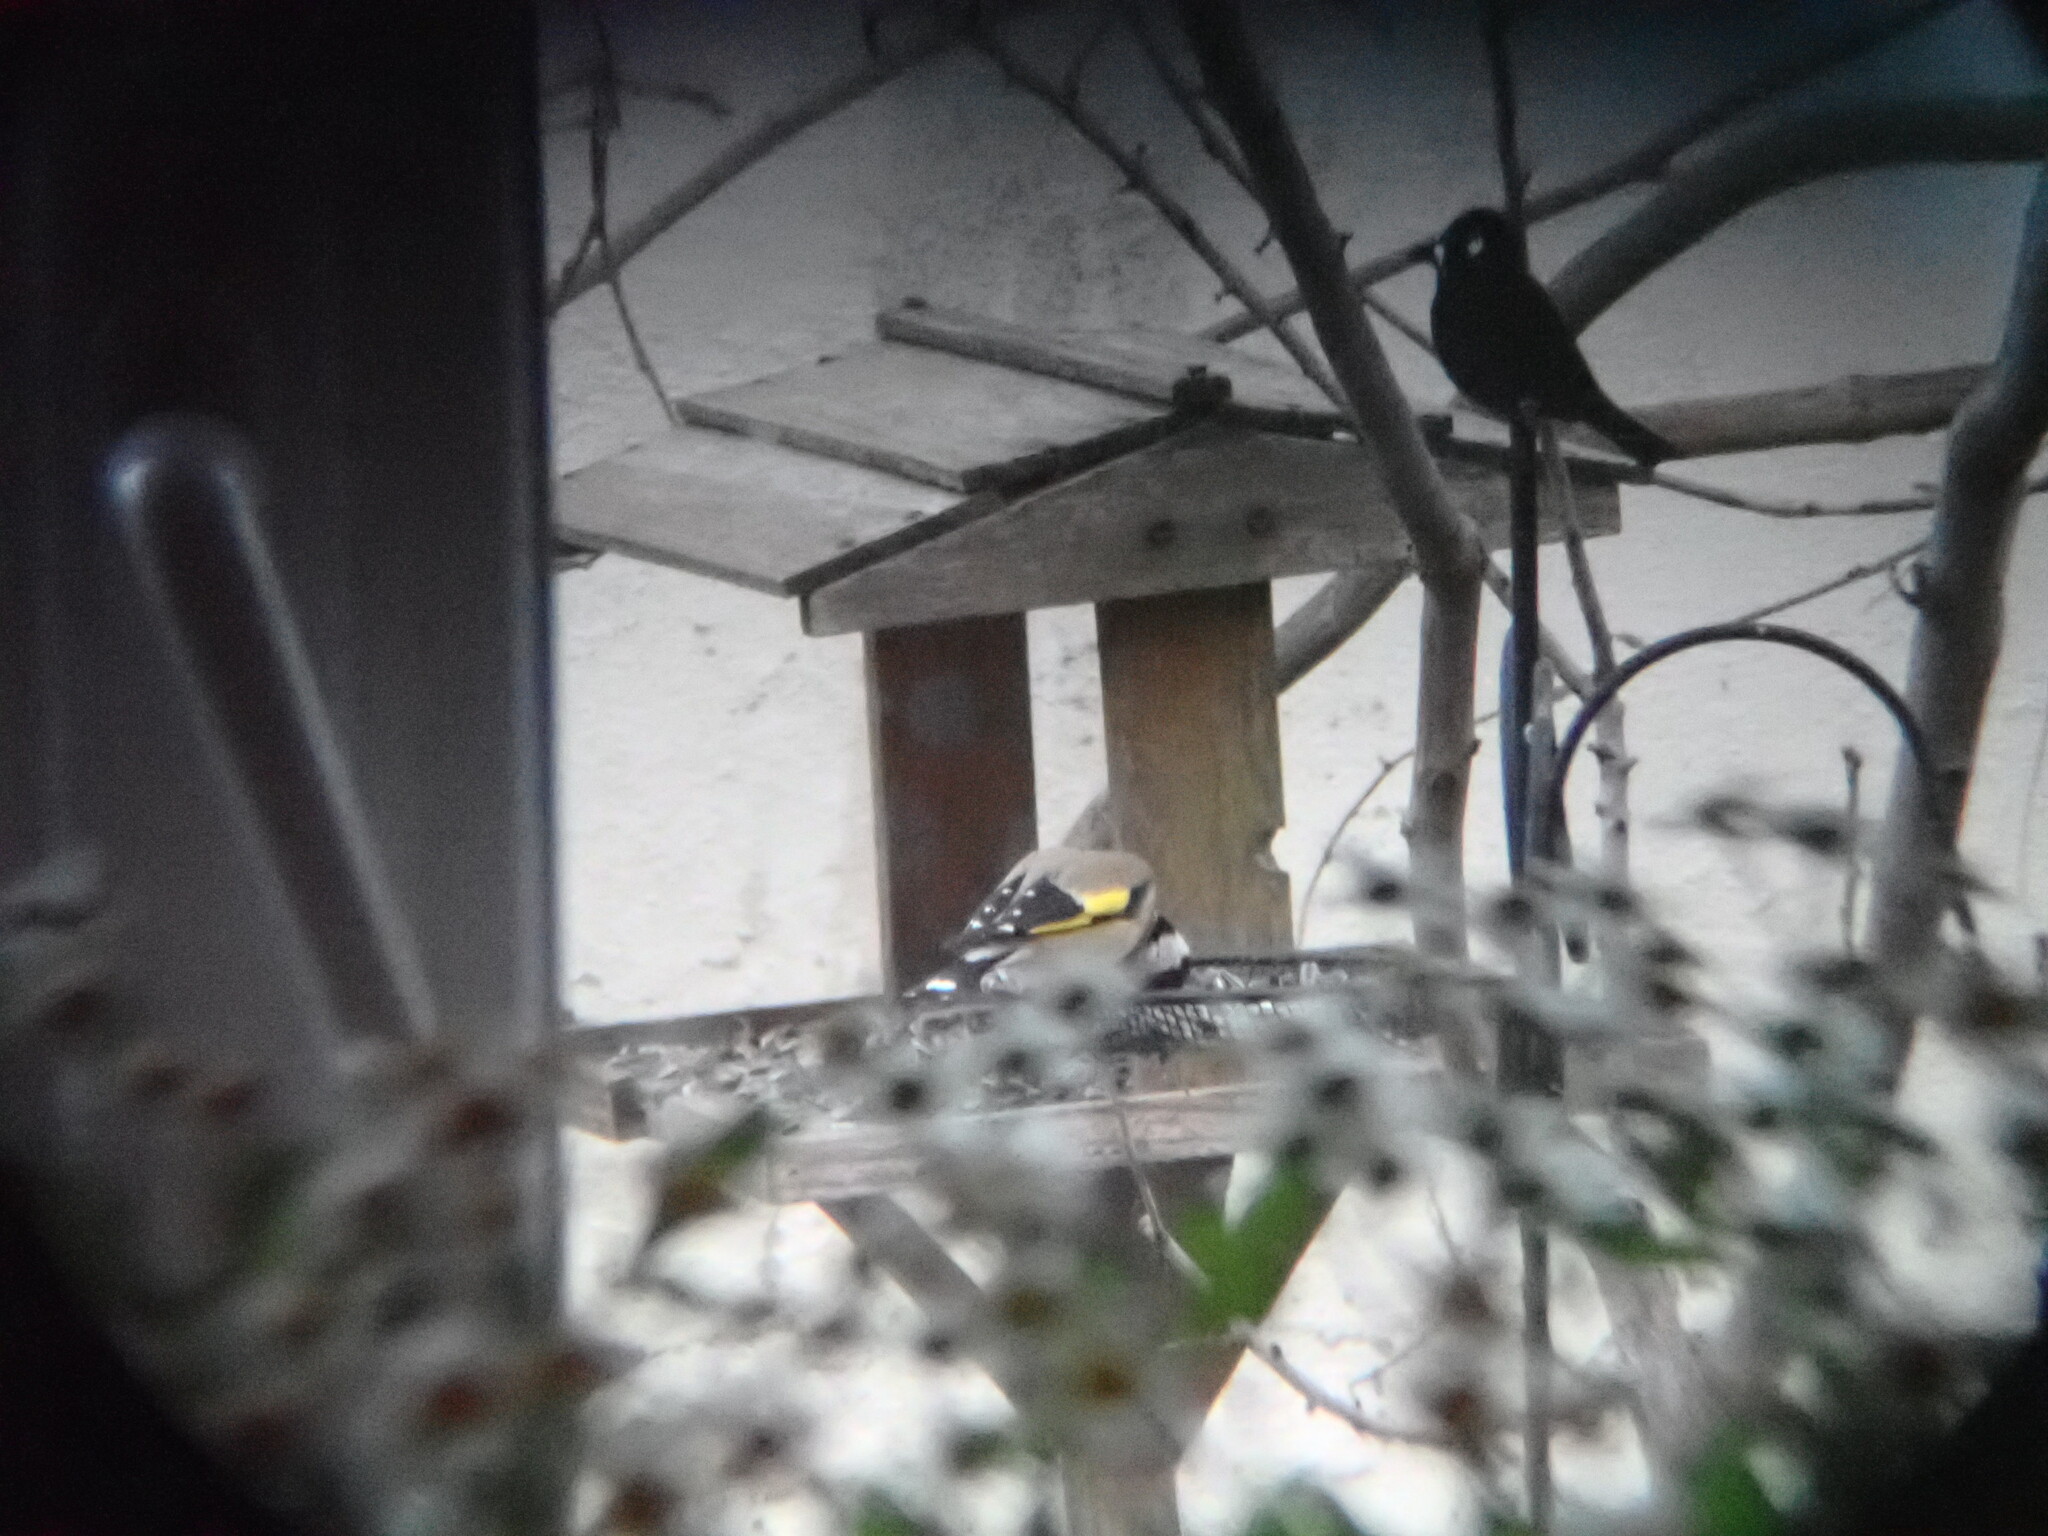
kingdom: Animalia
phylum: Chordata
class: Aves
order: Passeriformes
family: Fringillidae
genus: Carduelis
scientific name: Carduelis carduelis
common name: European goldfinch
